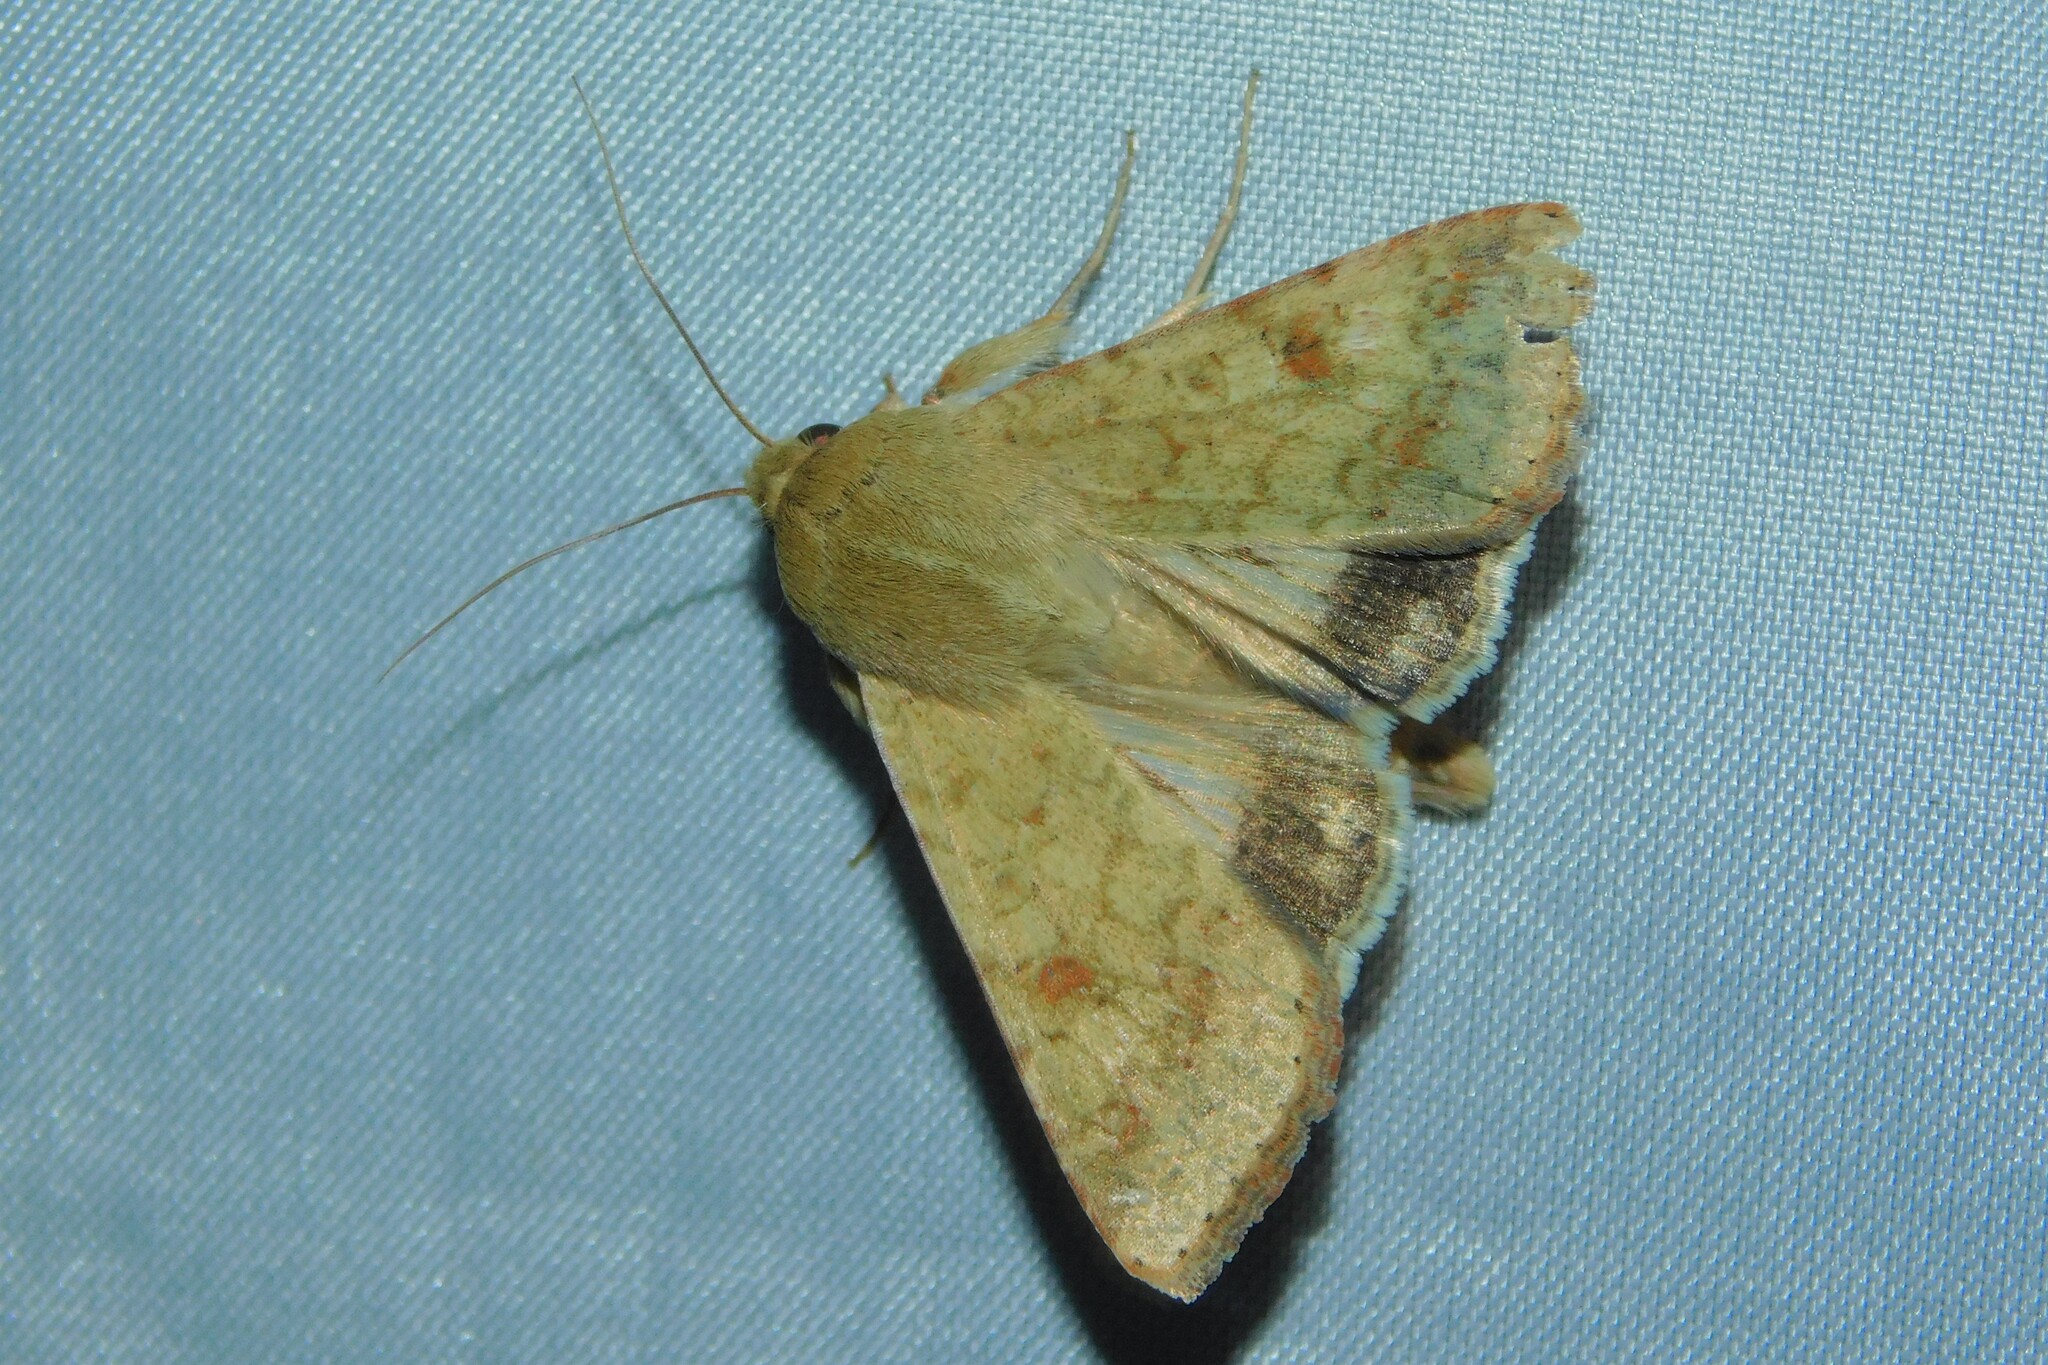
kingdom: Animalia
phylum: Arthropoda
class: Insecta
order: Lepidoptera
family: Noctuidae
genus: Helicoverpa
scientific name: Helicoverpa armigera
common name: Cotton bollworm
